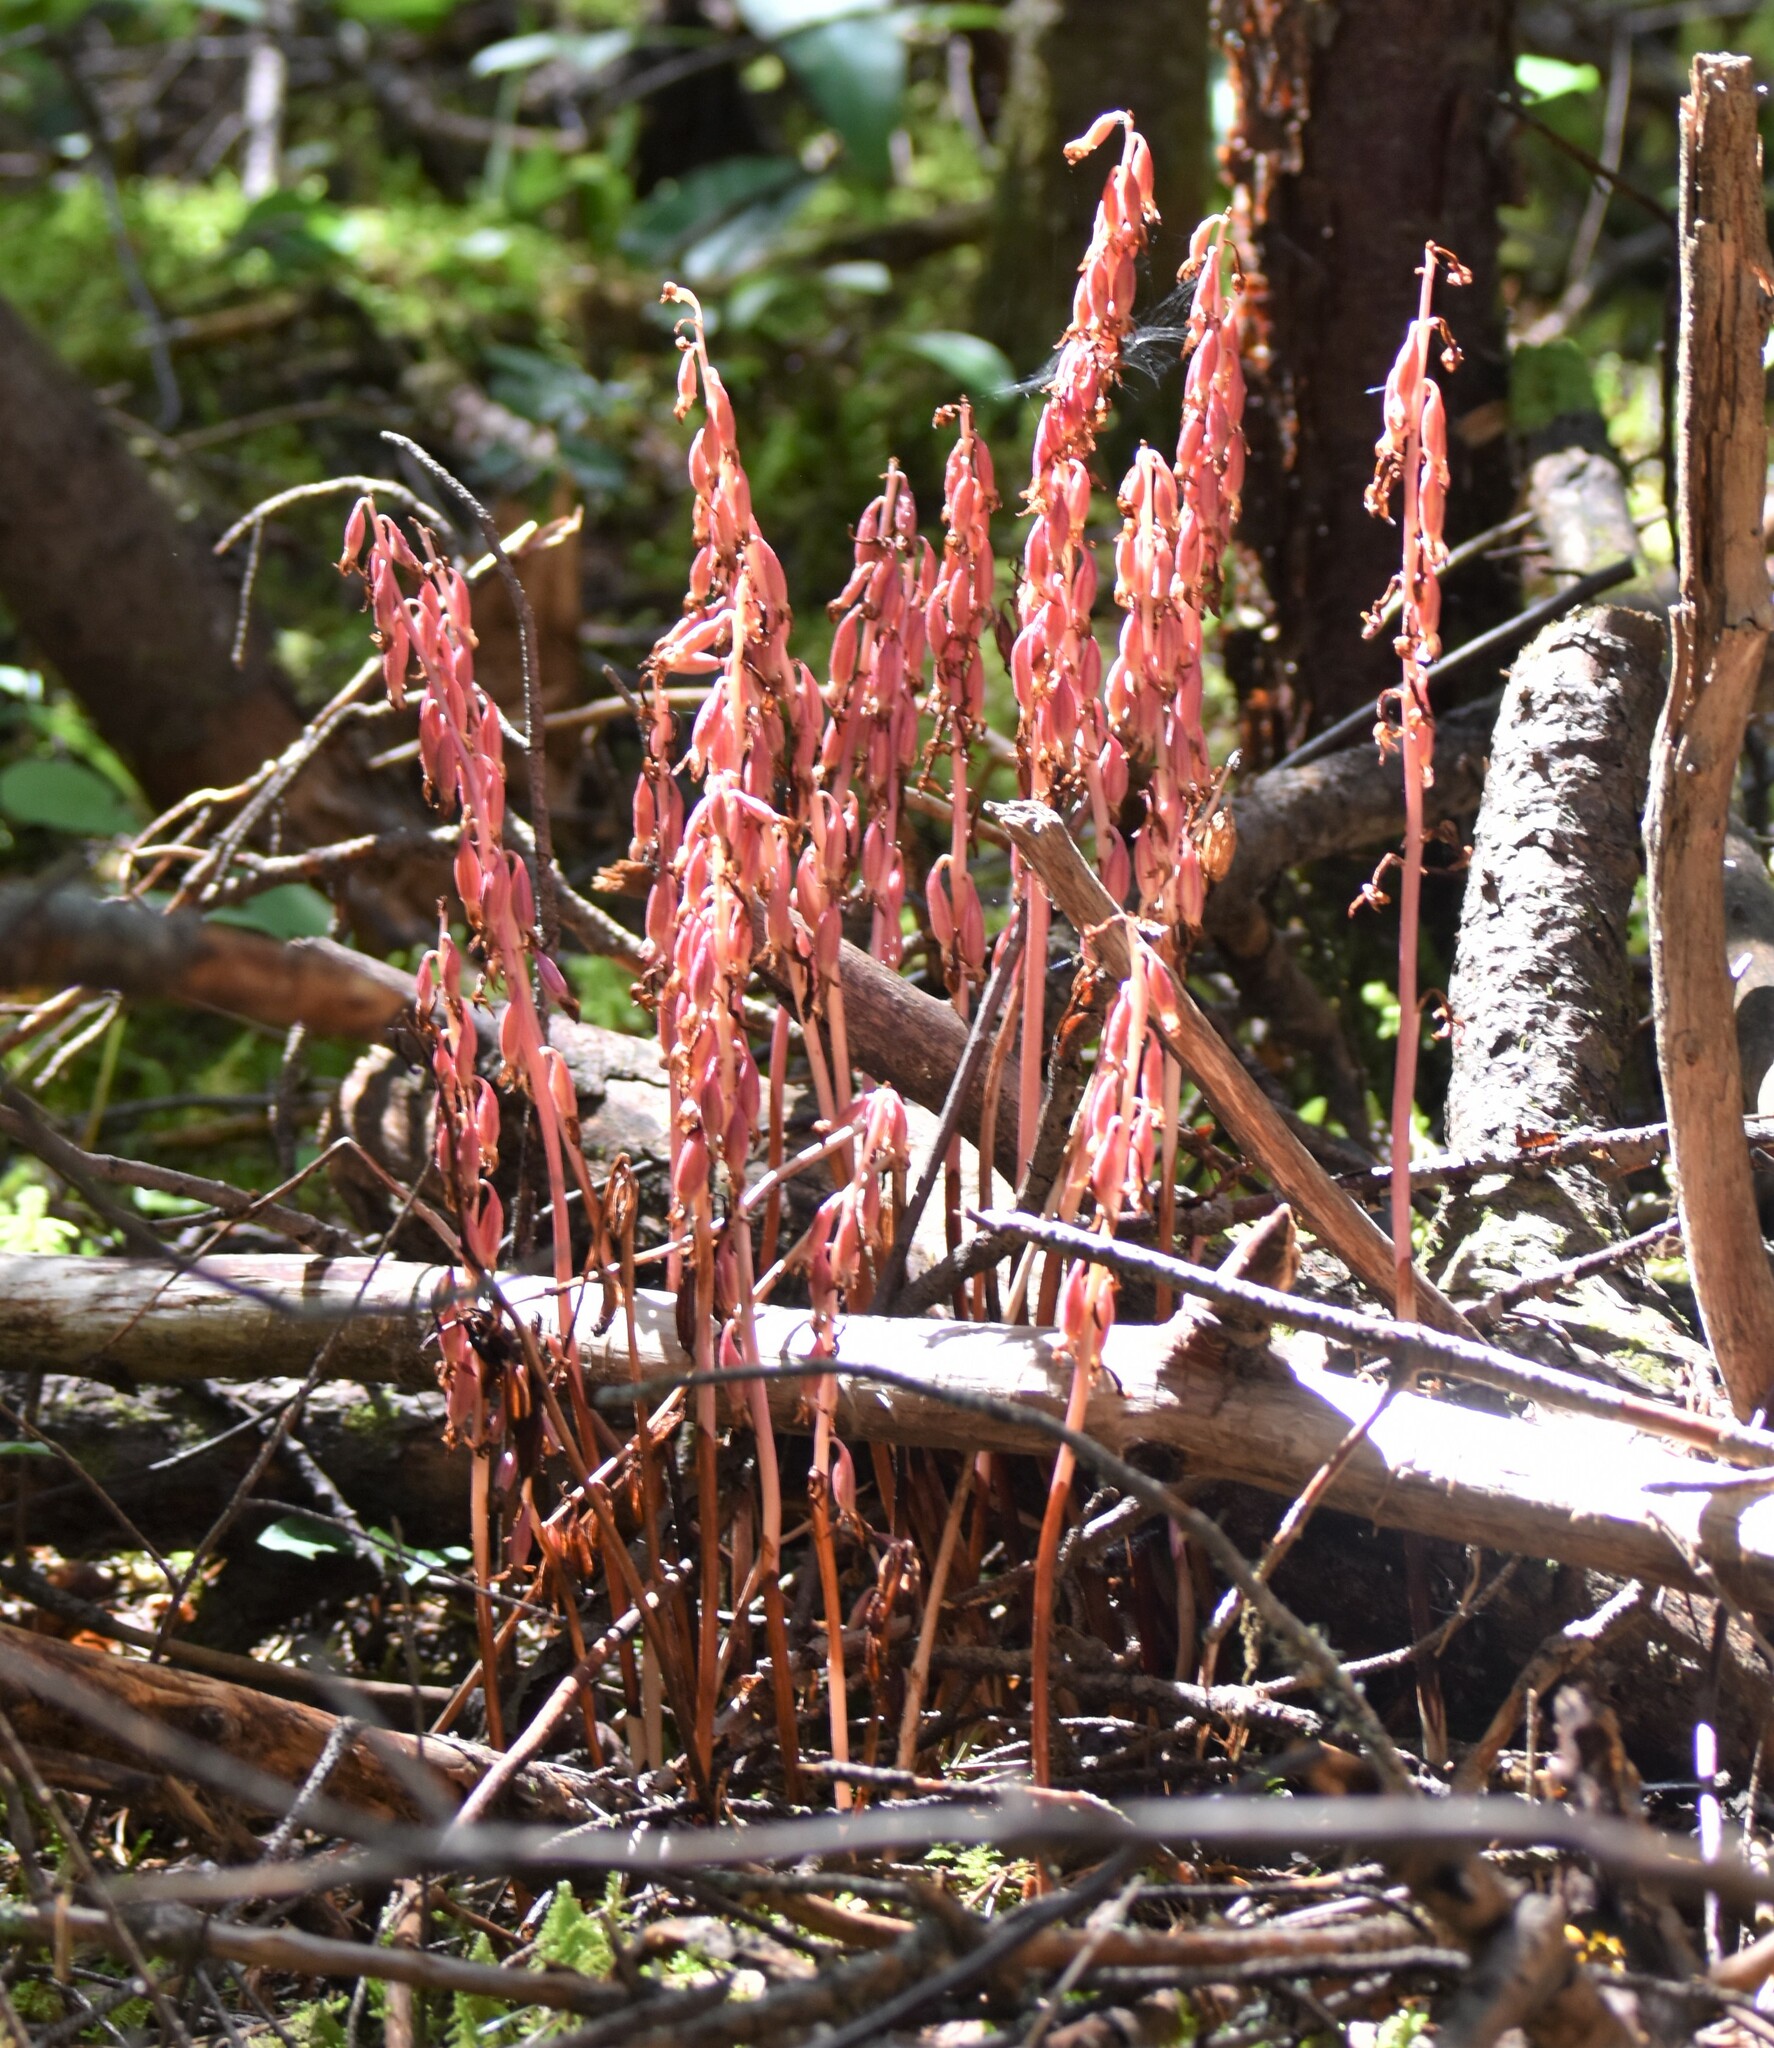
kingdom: Plantae
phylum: Tracheophyta
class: Liliopsida
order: Asparagales
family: Orchidaceae
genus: Corallorhiza
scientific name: Corallorhiza maculata
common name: Spotted coralroot
